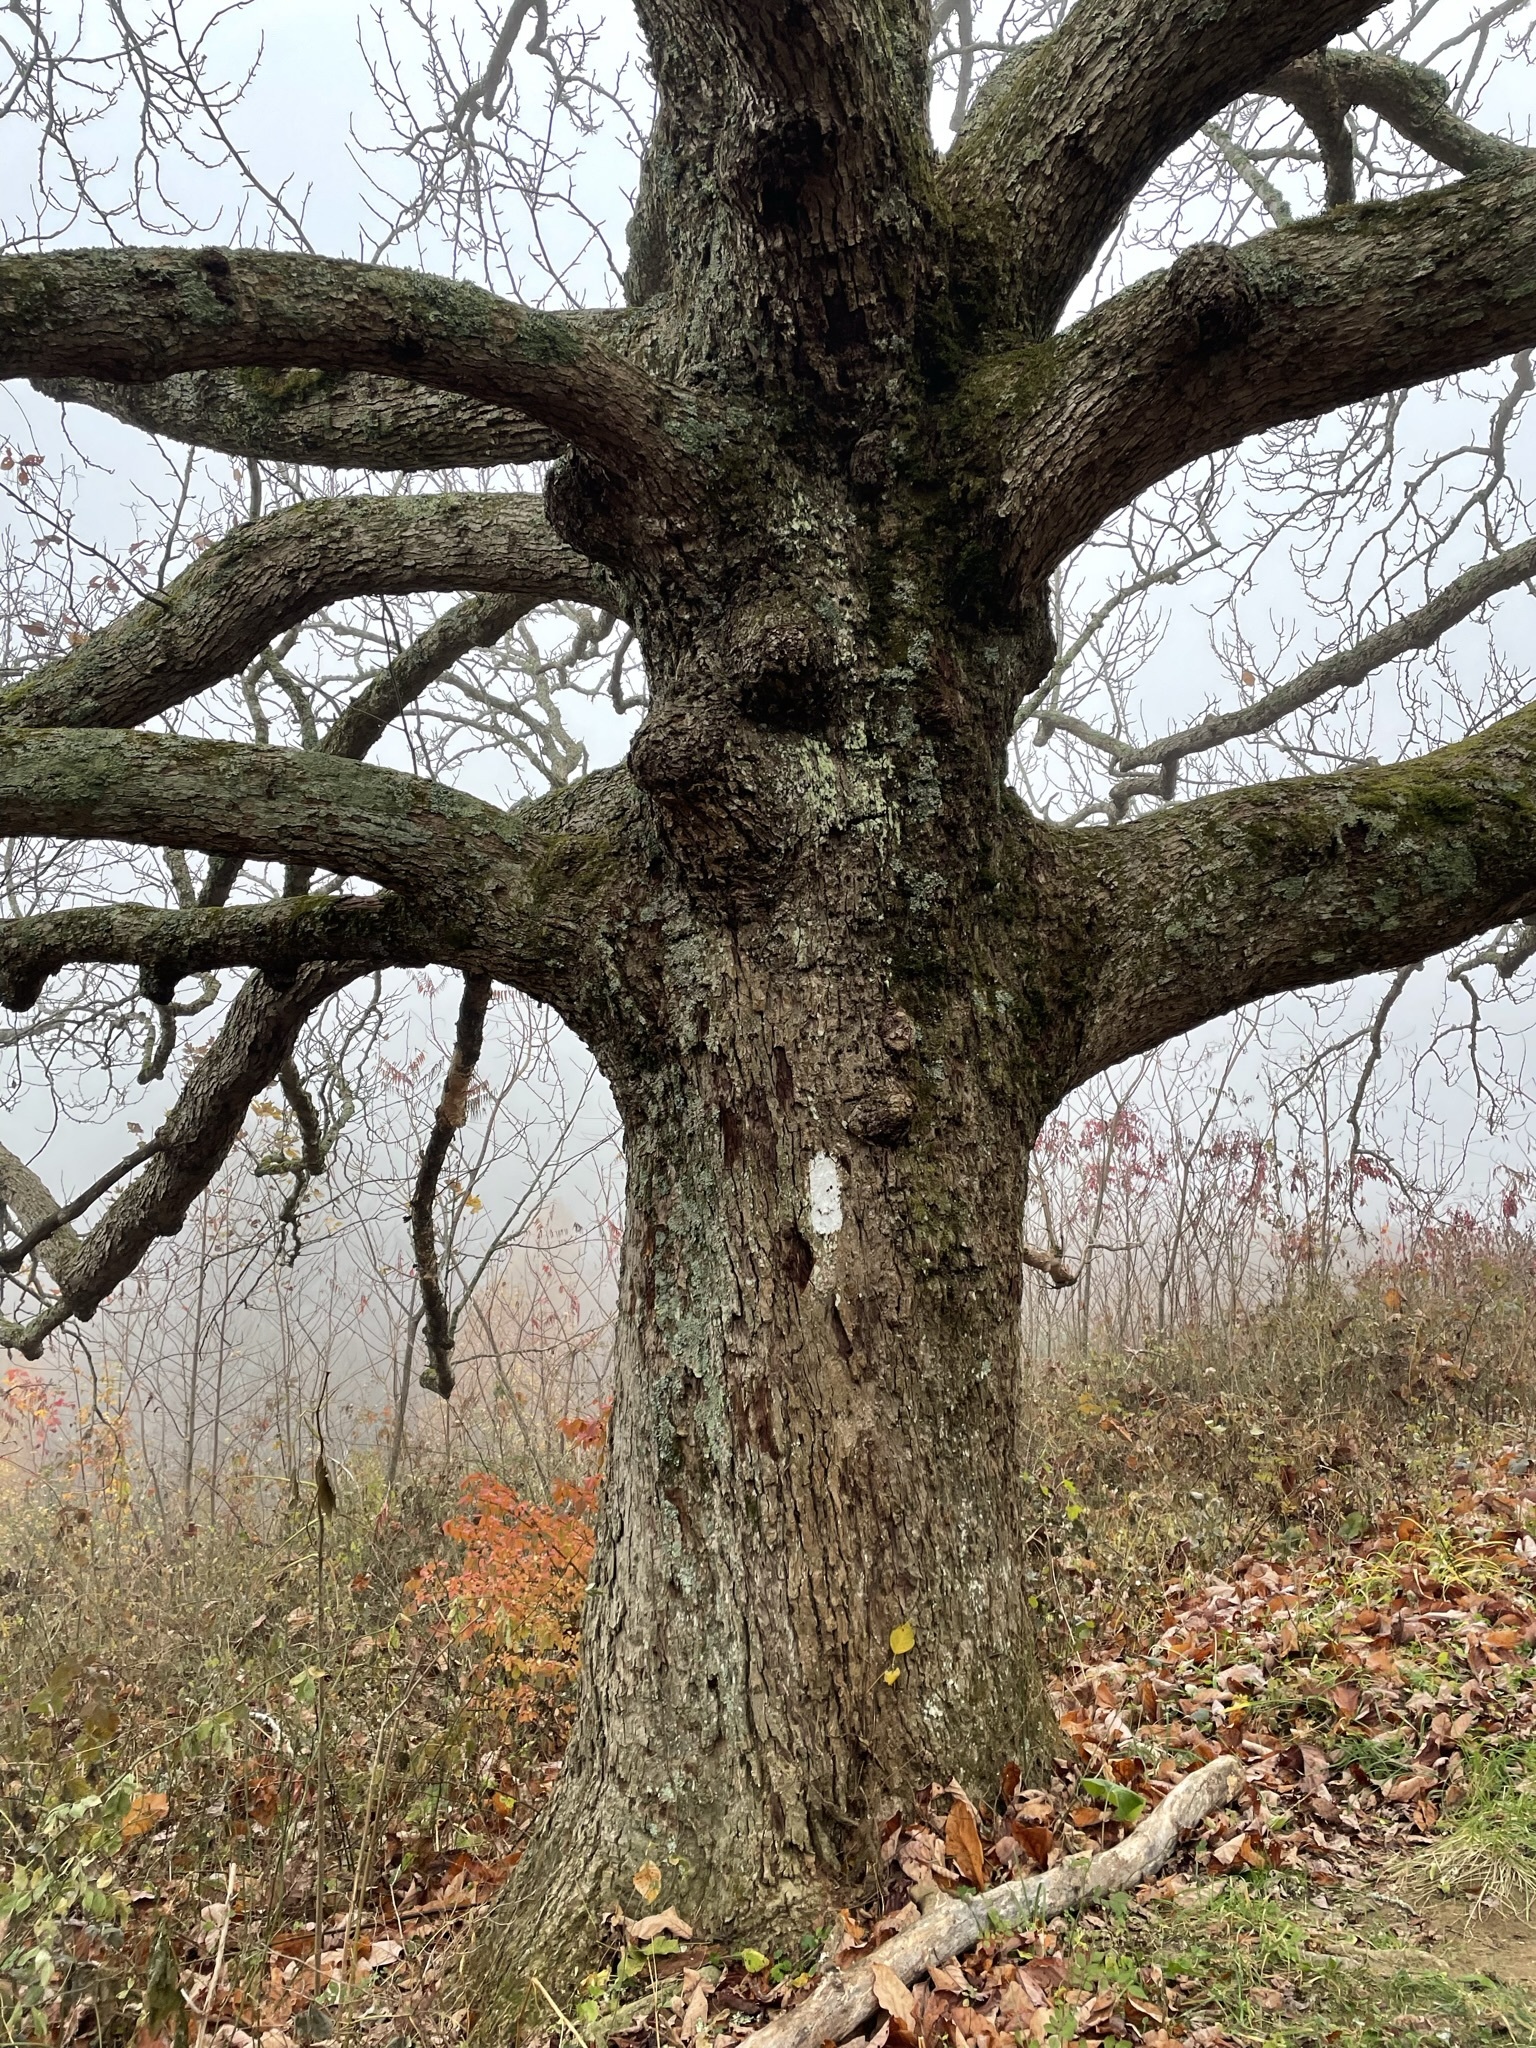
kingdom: Plantae
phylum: Tracheophyta
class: Magnoliopsida
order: Magnoliales
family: Magnoliaceae
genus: Magnolia
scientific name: Magnolia acuminata
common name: Cucumber magnolia
